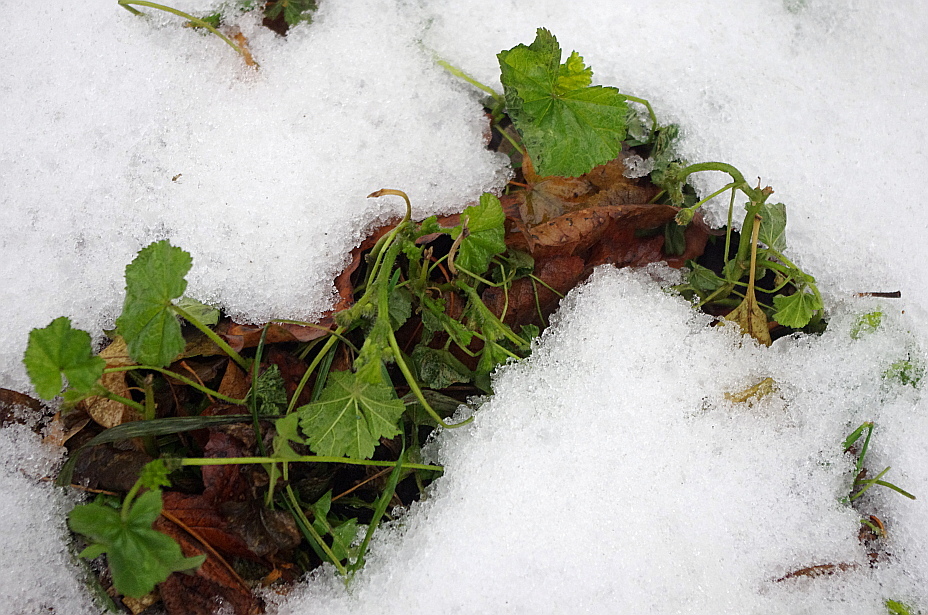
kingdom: Plantae
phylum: Tracheophyta
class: Magnoliopsida
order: Malvales
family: Malvaceae
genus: Malva
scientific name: Malva pusilla
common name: Small mallow
